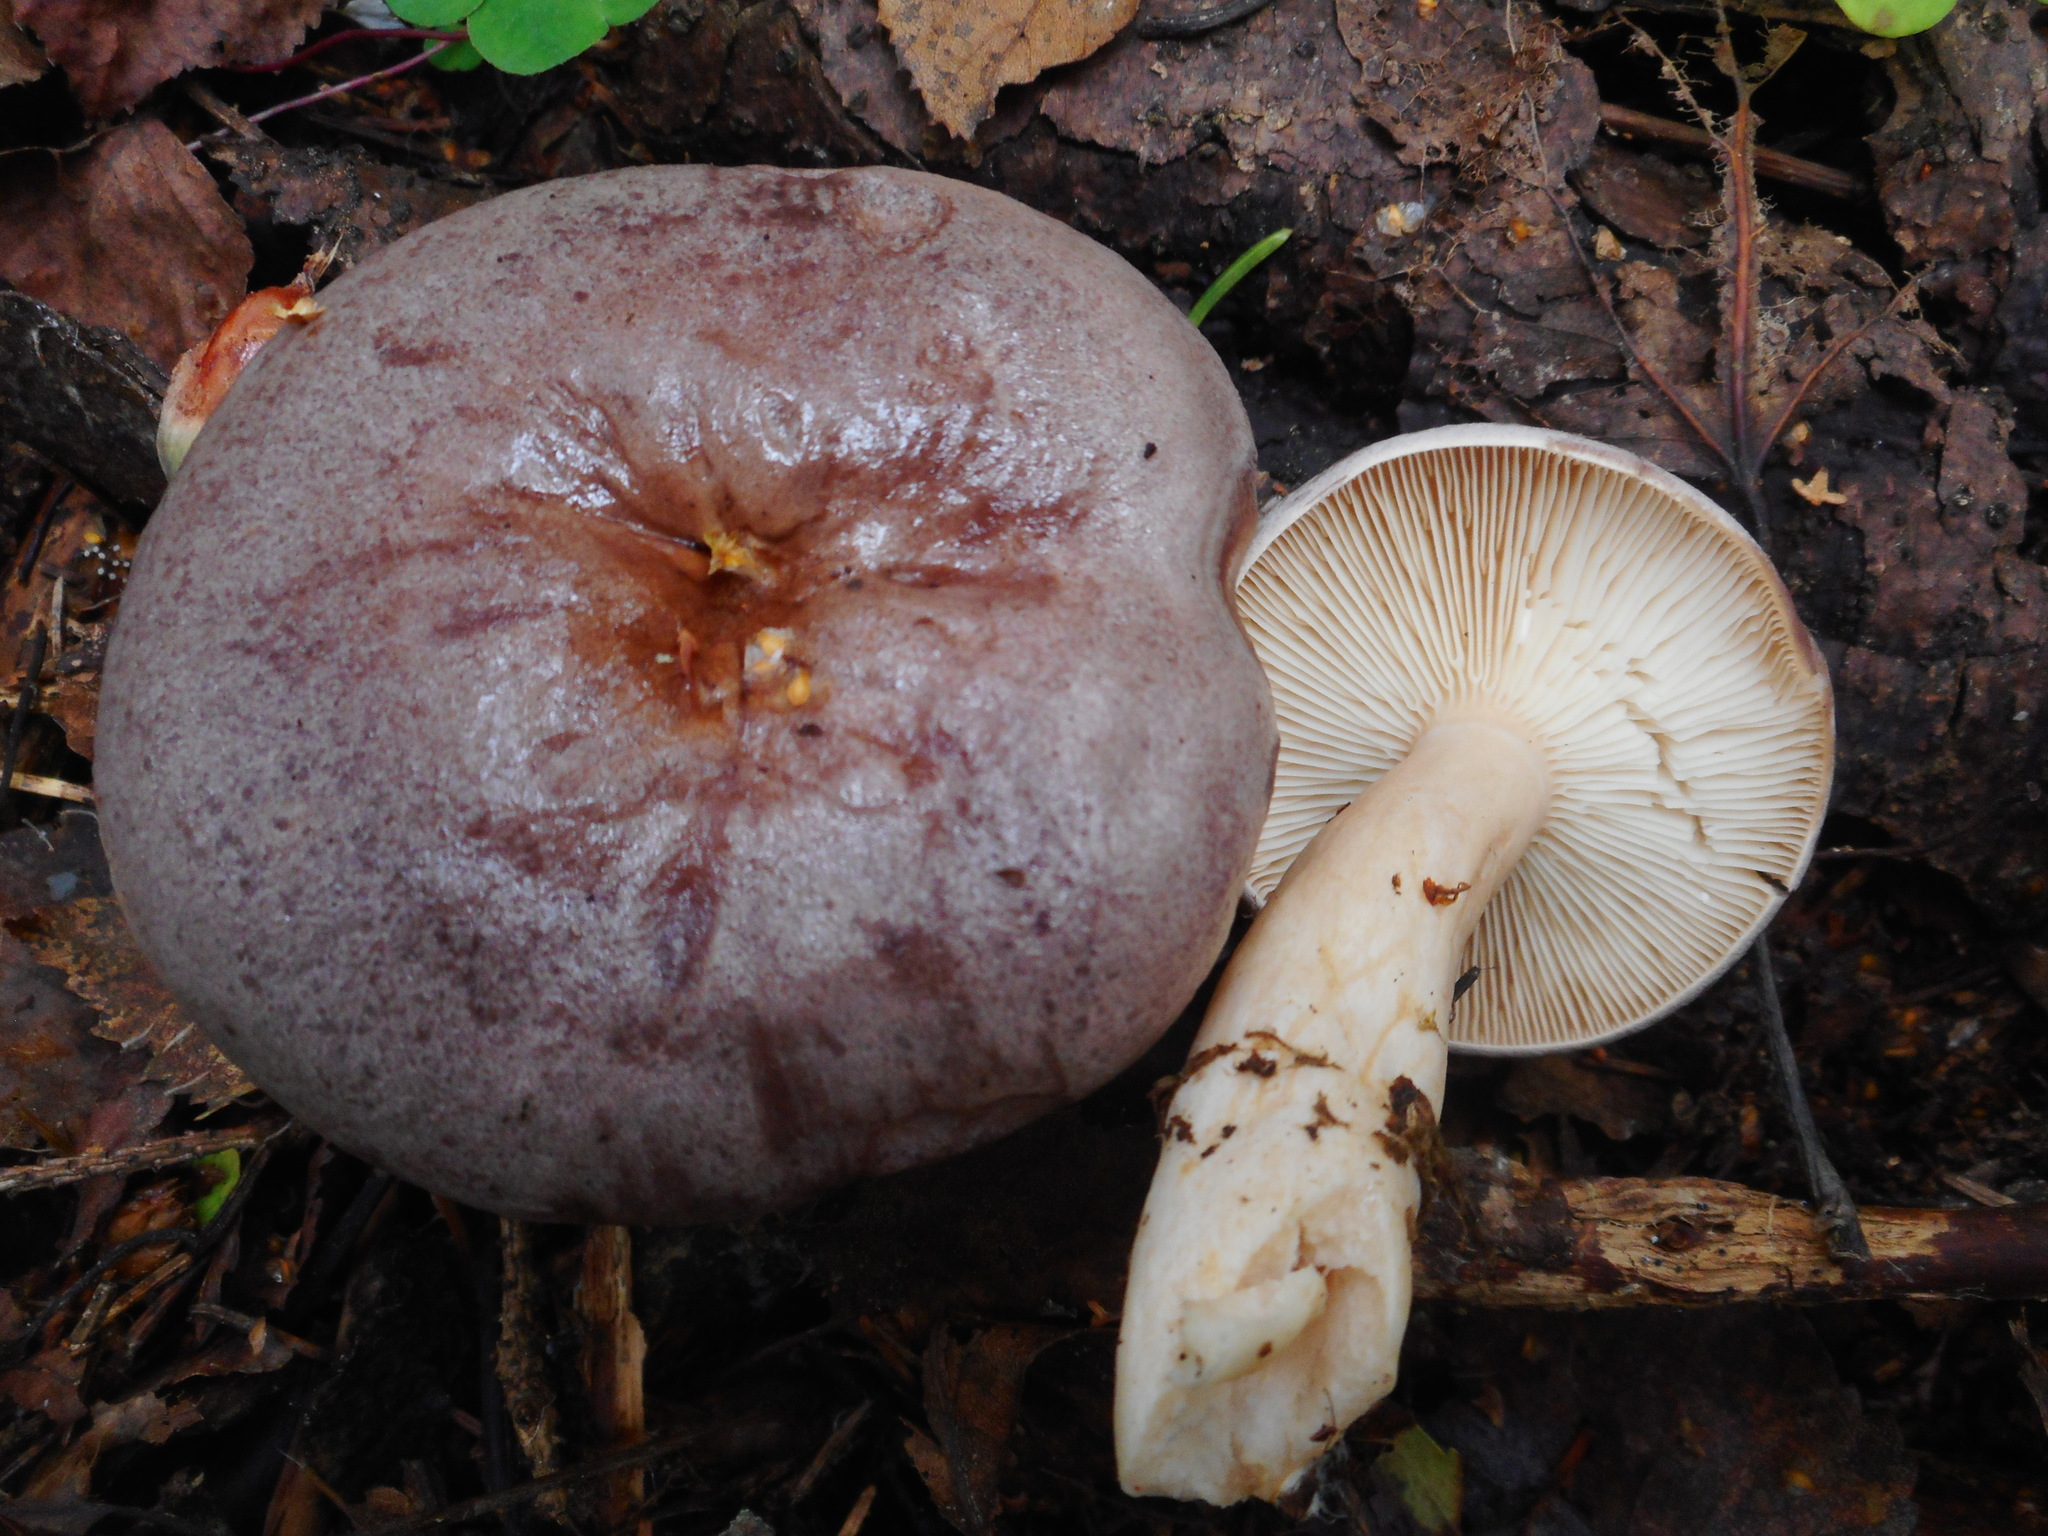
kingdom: Fungi
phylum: Basidiomycota
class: Agaricomycetes
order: Russulales
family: Russulaceae
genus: Lactarius
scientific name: Lactarius trivialis
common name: Tacked milkcap
